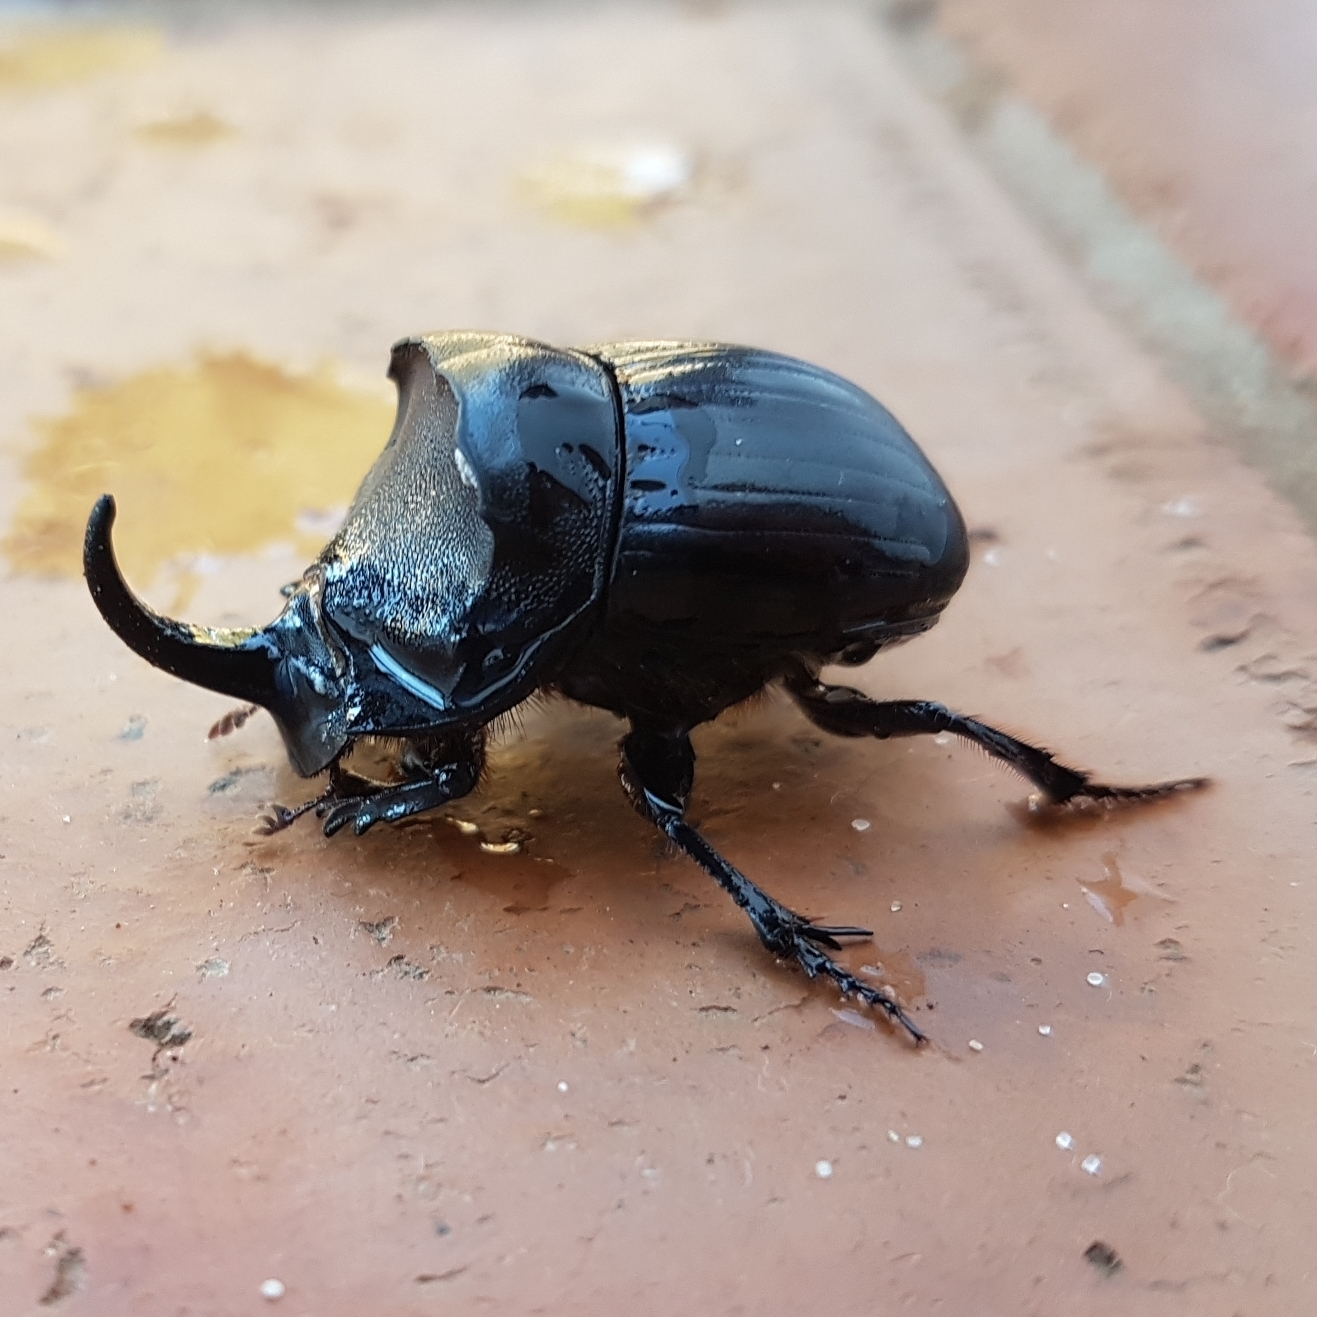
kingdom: Animalia
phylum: Arthropoda
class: Insecta
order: Coleoptera
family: Scarabaeidae
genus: Copris
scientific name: Copris hispanus
